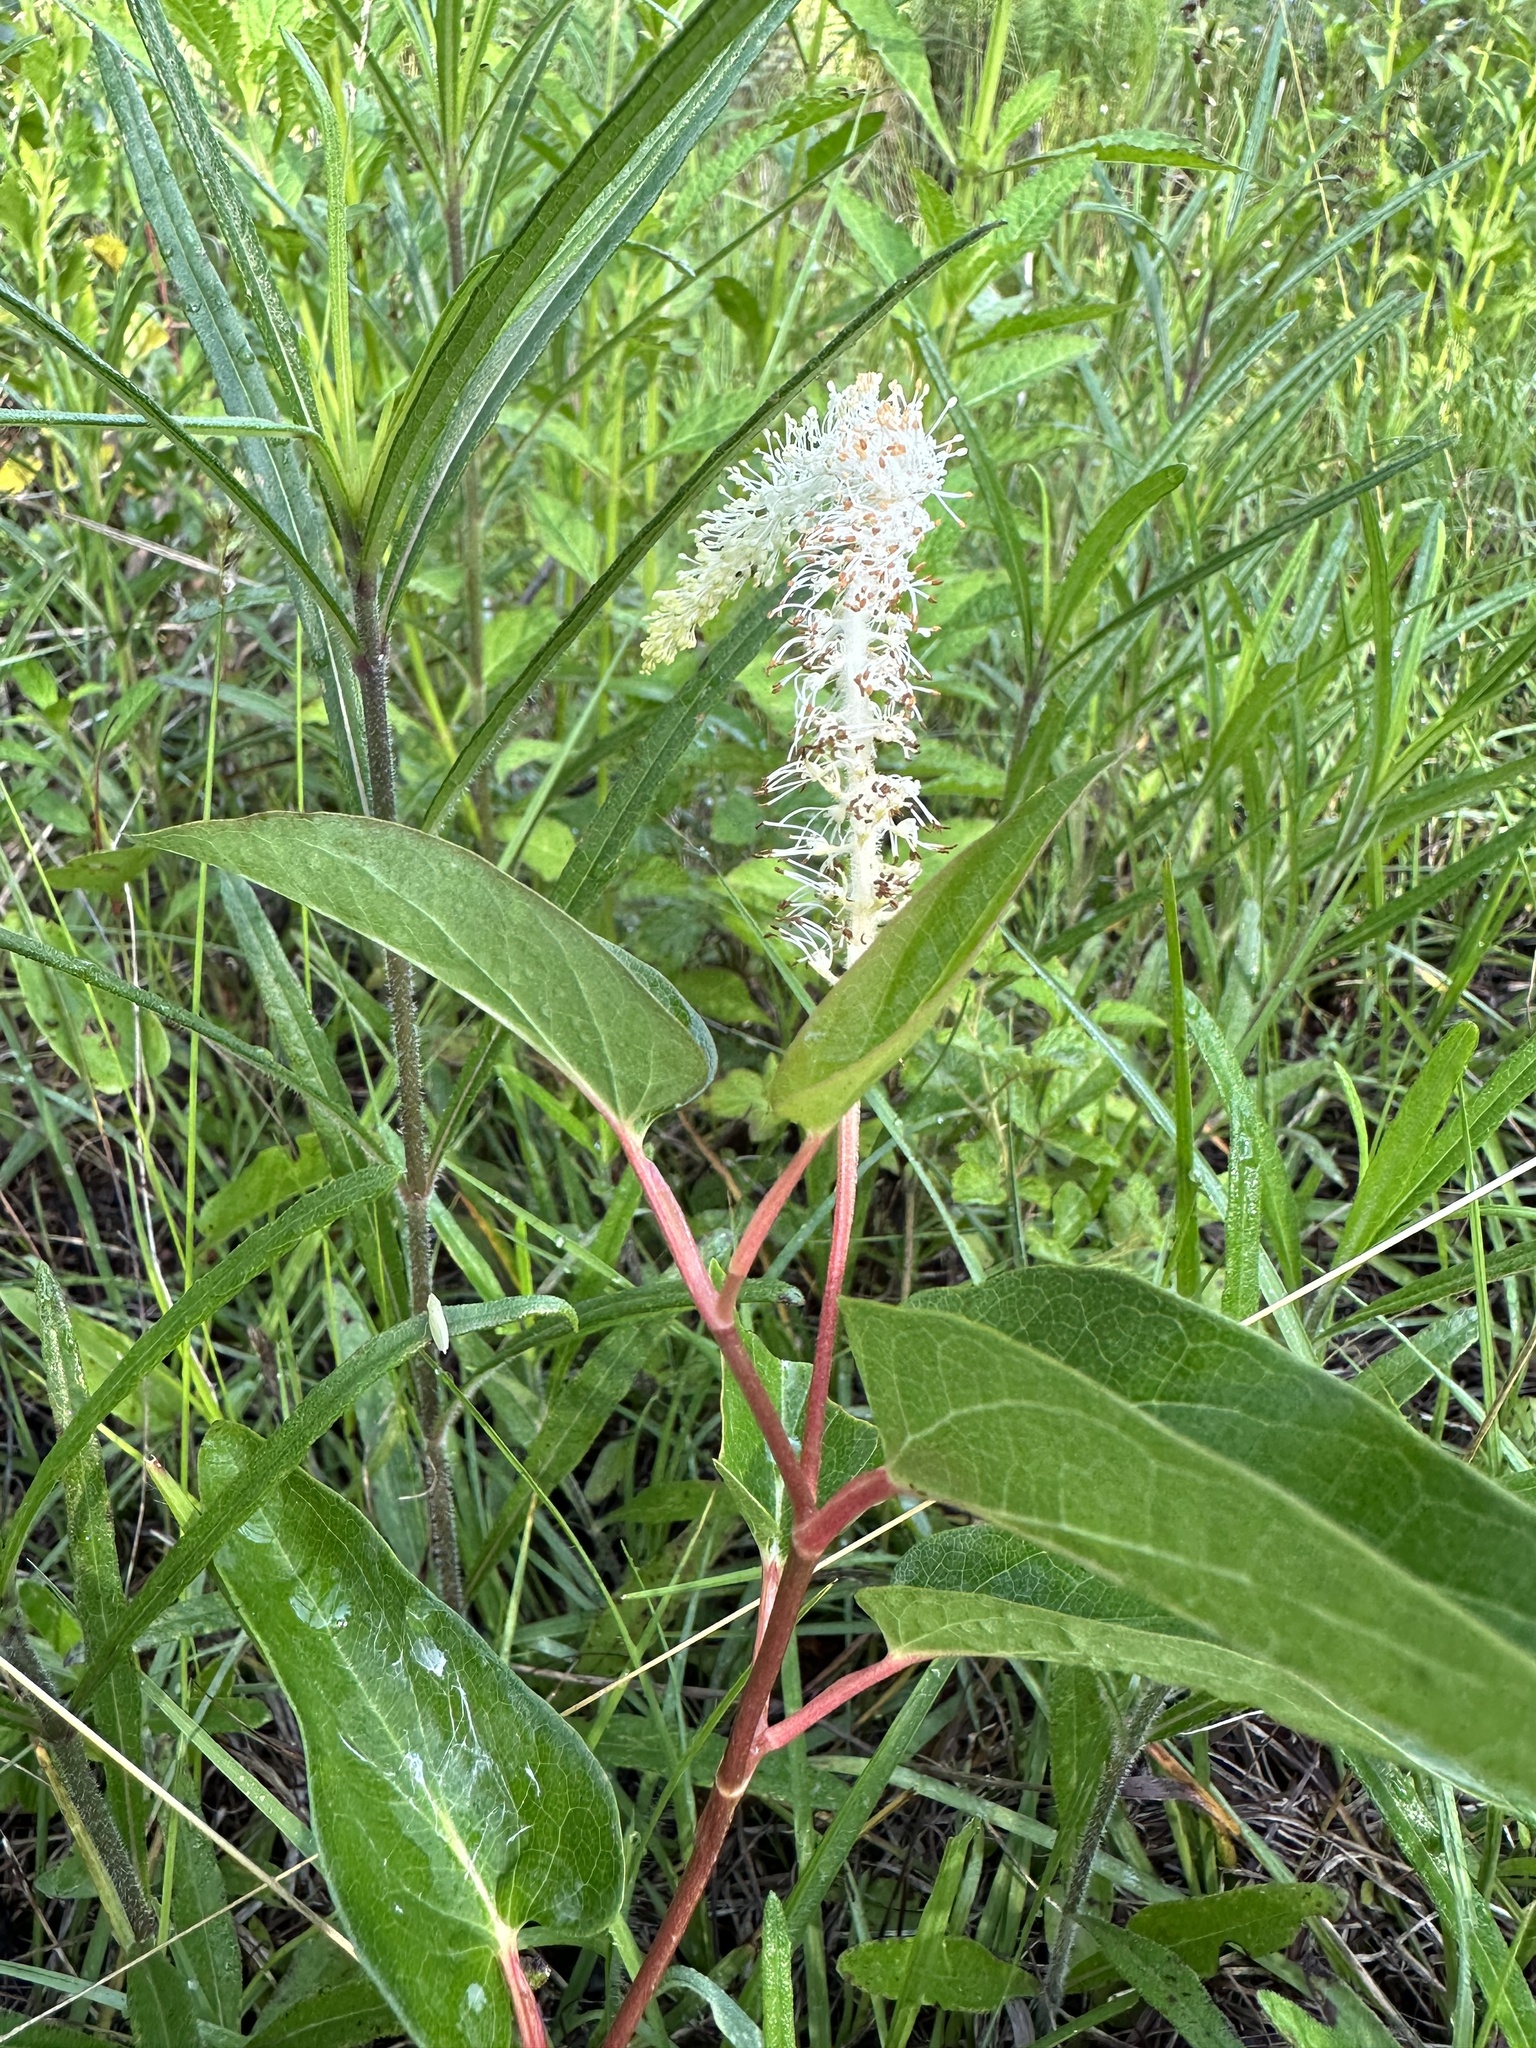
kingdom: Plantae
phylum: Tracheophyta
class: Magnoliopsida
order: Piperales
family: Saururaceae
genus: Saururus
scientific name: Saururus cernuus
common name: Lizard's-tail
